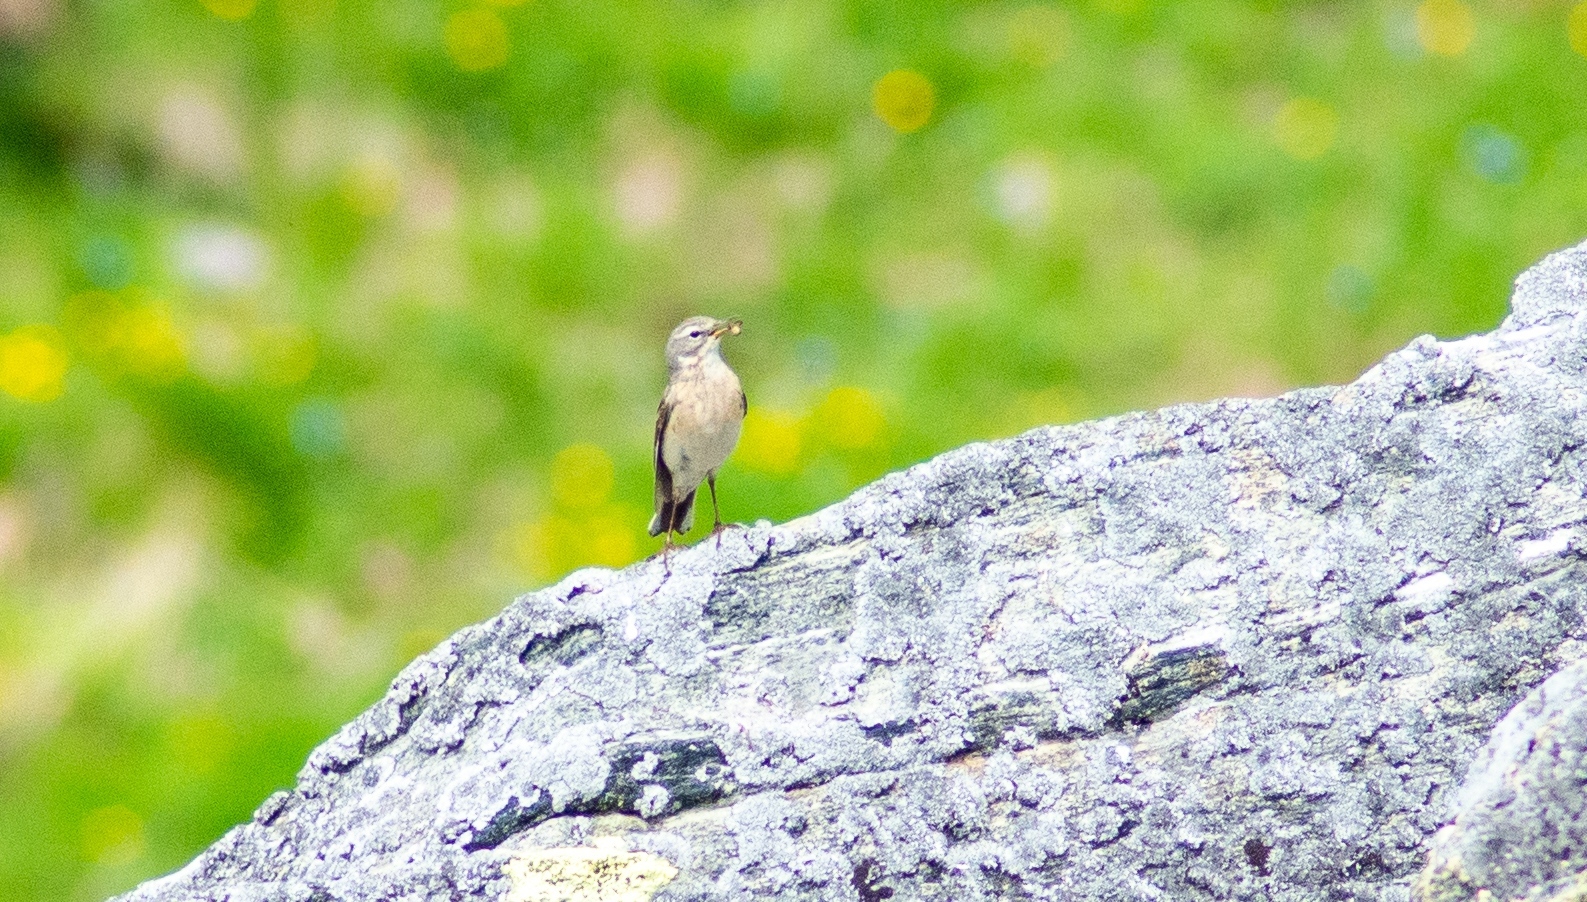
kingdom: Animalia
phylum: Chordata
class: Aves
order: Passeriformes
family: Muscicapidae
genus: Oenanthe
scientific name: Oenanthe oenanthe
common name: Northern wheatear
